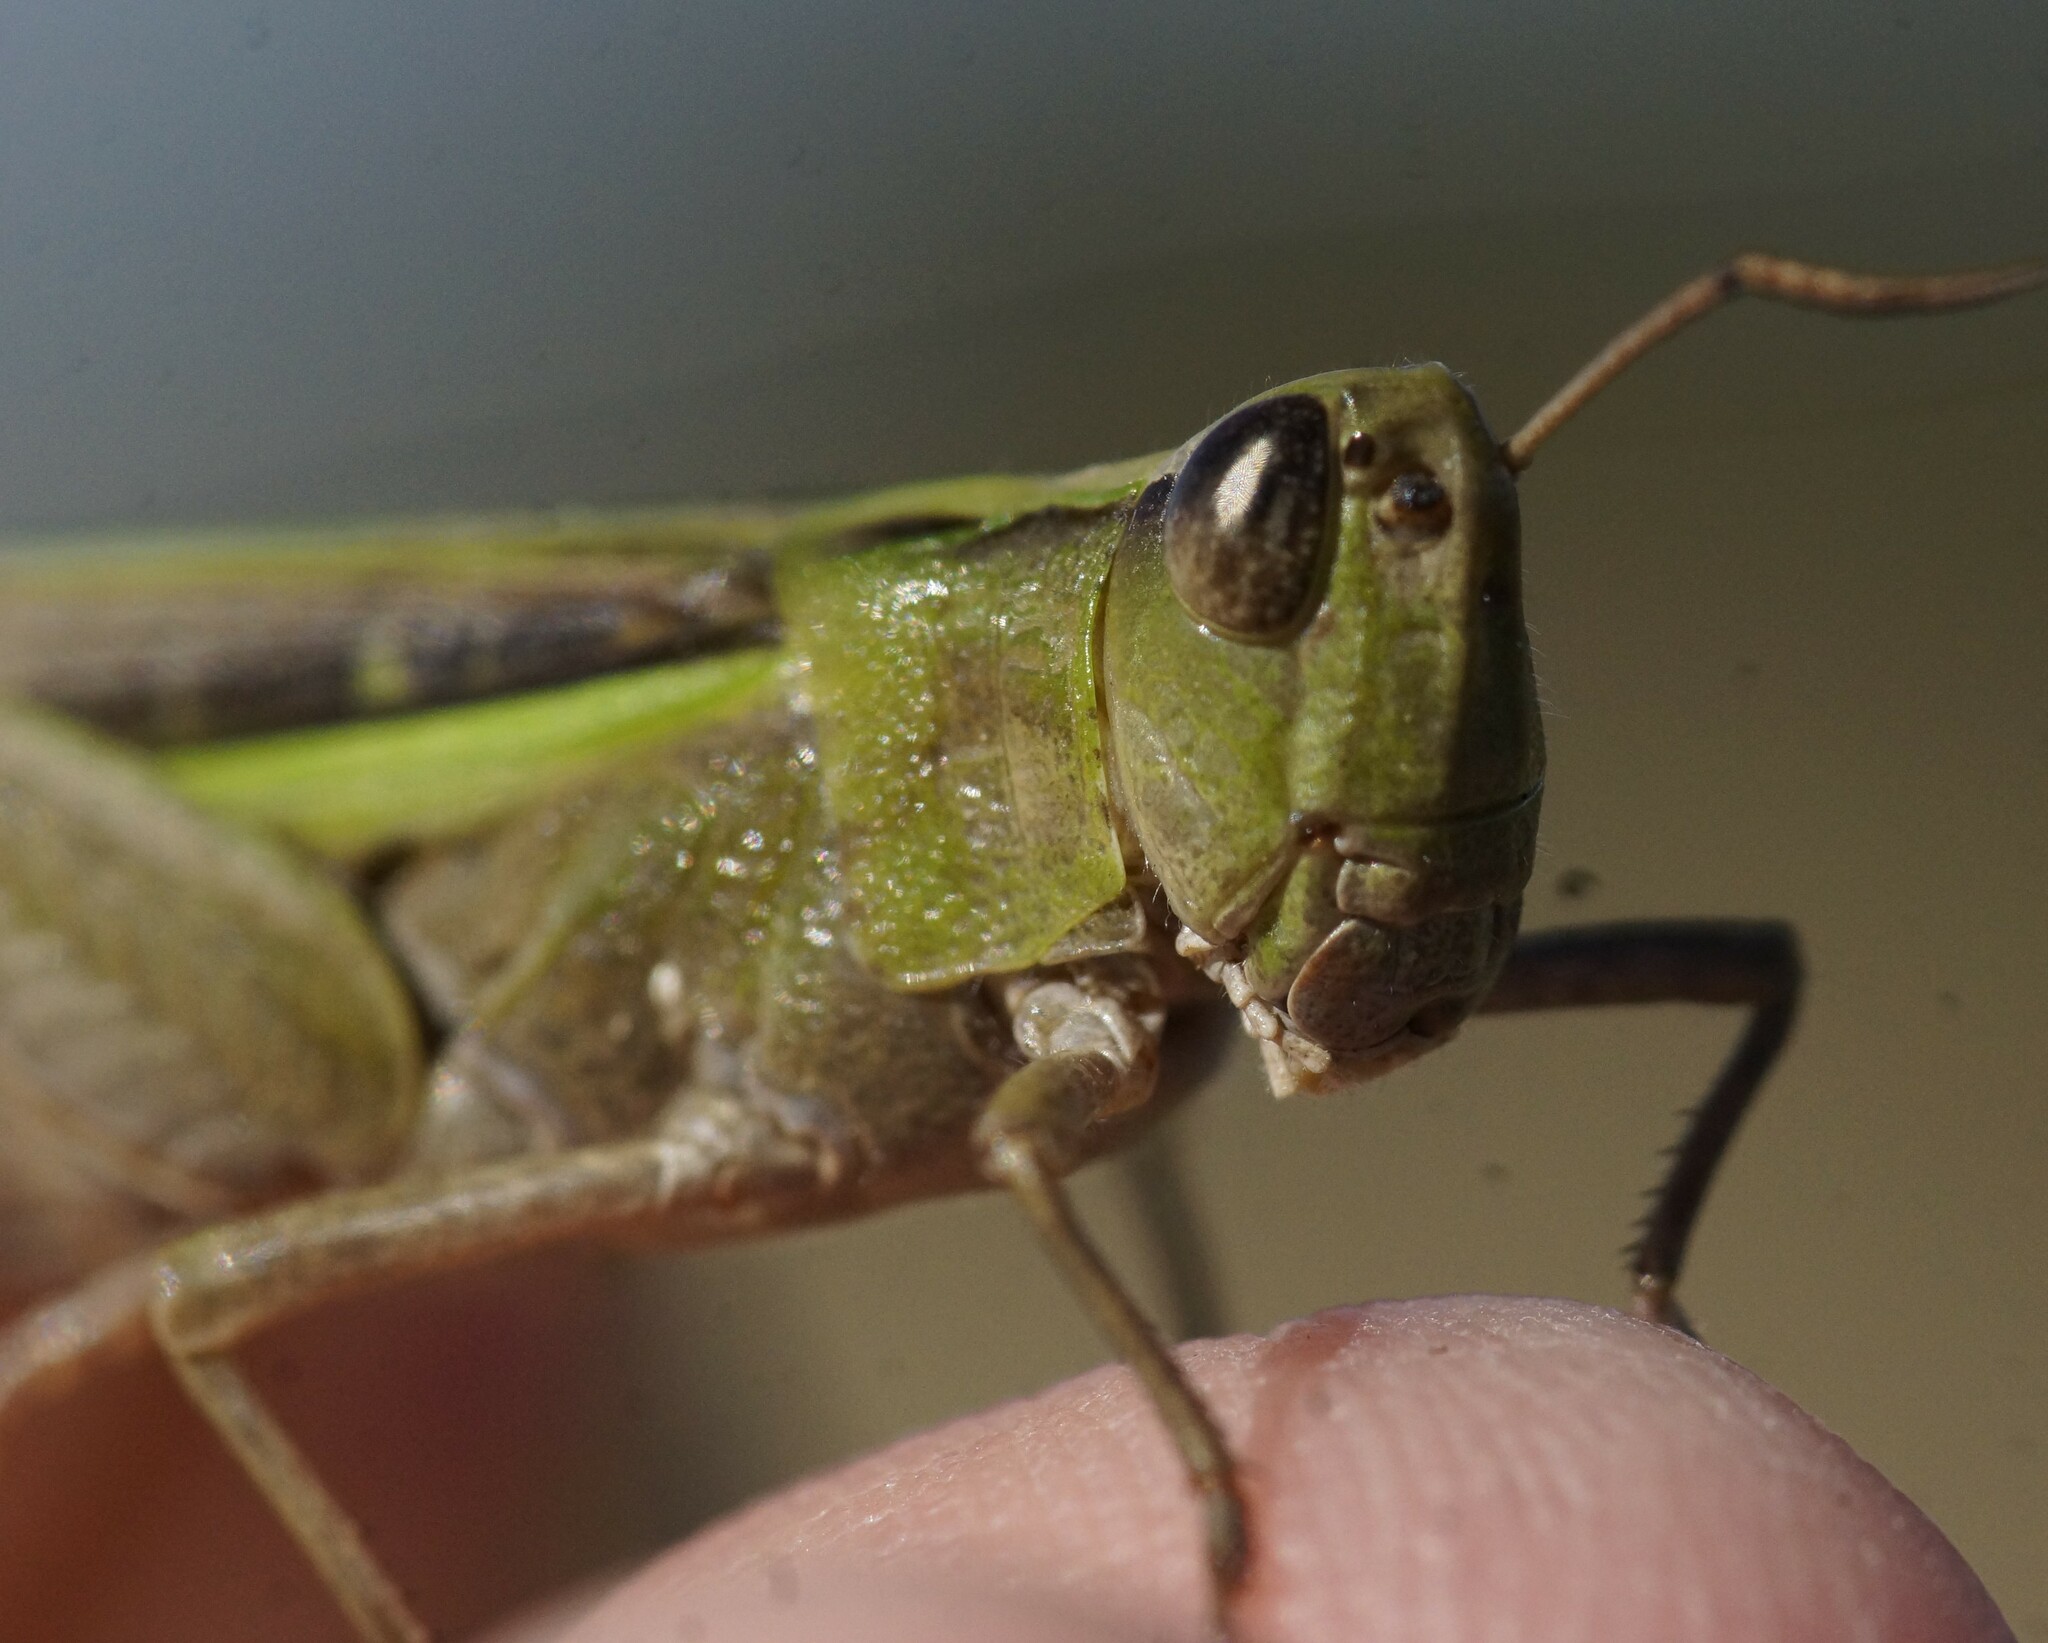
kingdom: Animalia
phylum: Arthropoda
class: Insecta
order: Orthoptera
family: Acrididae
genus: Schizobothrus
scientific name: Schizobothrus flavovittatus
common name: Disappearing grasshopper
